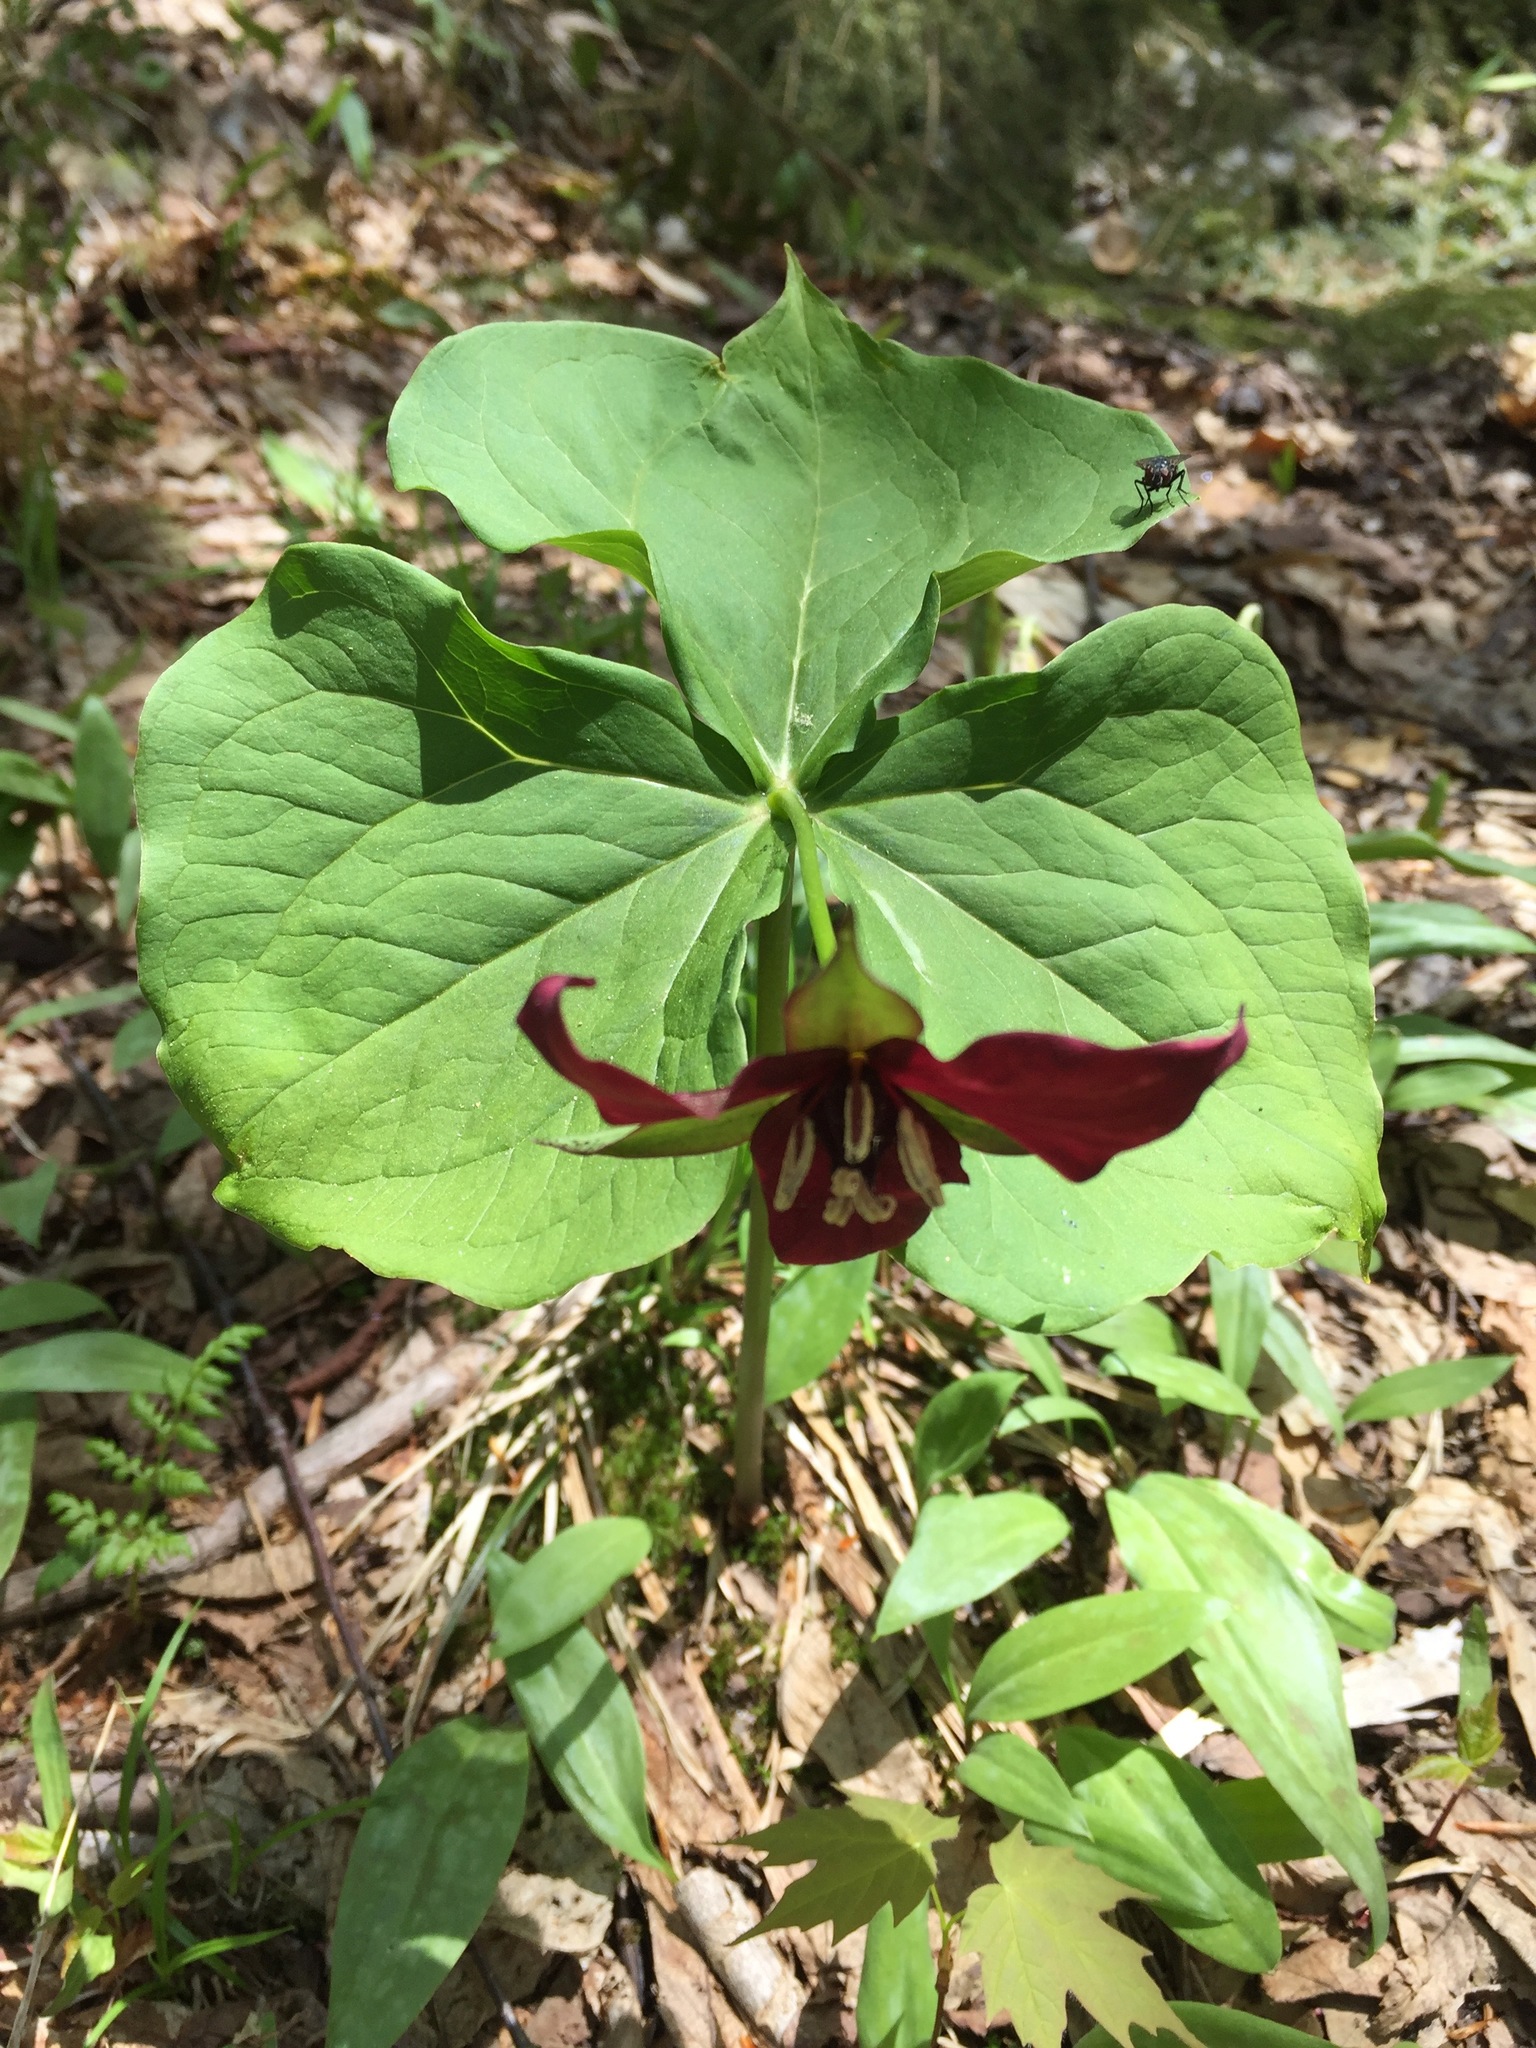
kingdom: Plantae
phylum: Tracheophyta
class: Liliopsida
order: Liliales
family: Melanthiaceae
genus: Trillium
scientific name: Trillium erectum
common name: Purple trillium
